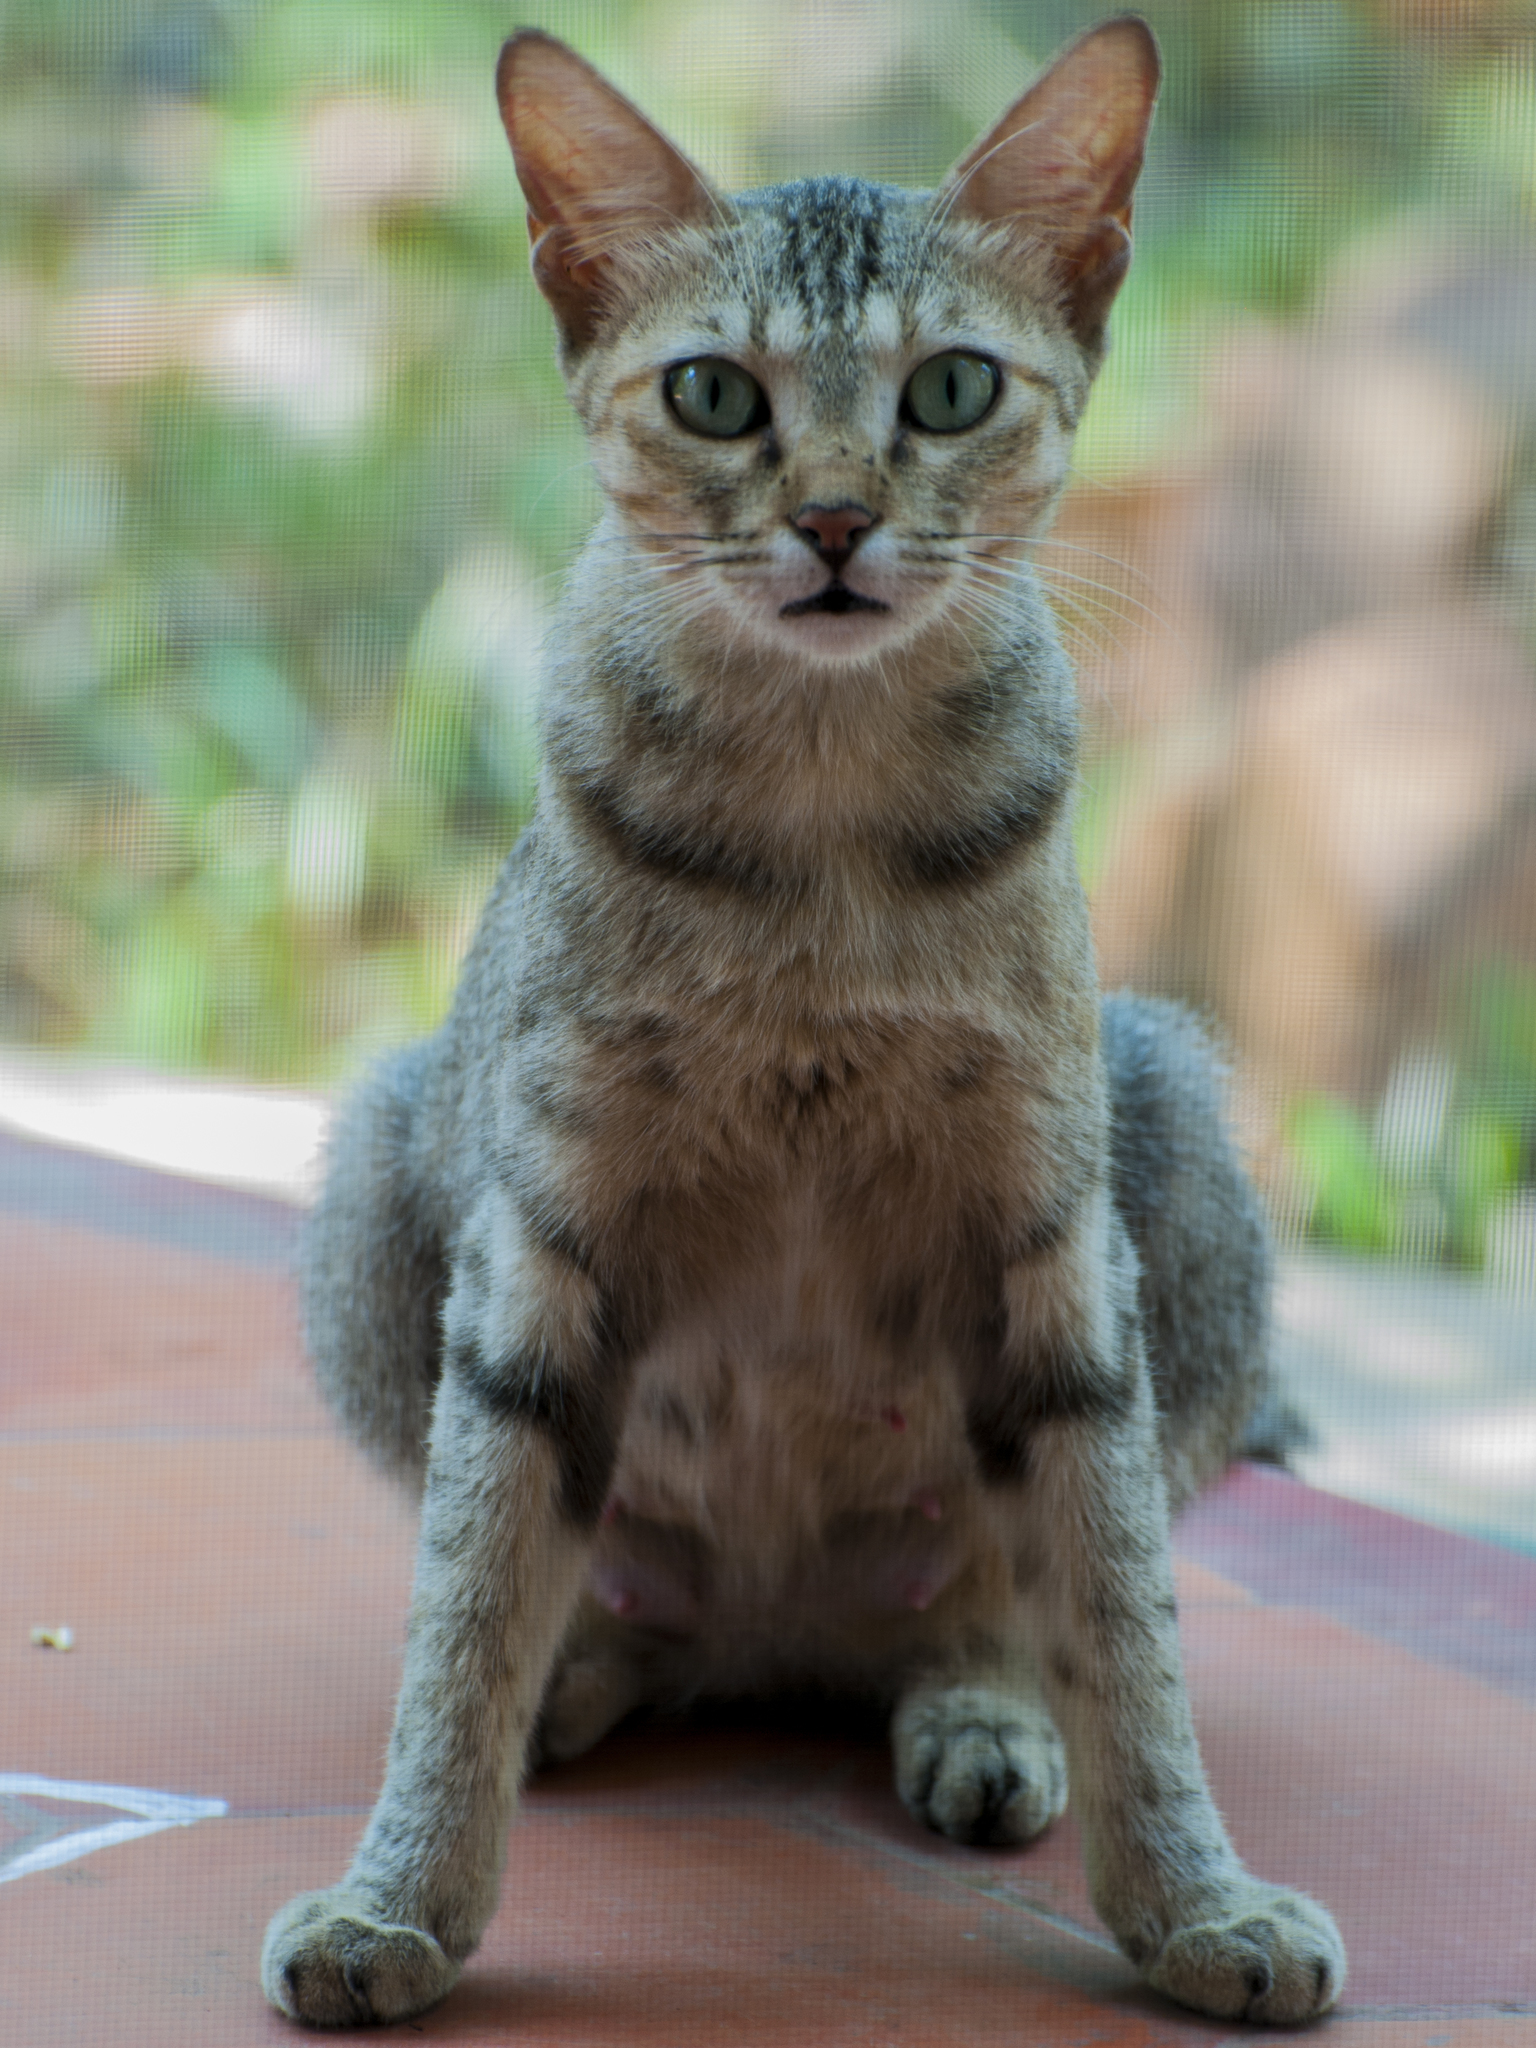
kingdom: Animalia
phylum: Chordata
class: Mammalia
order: Carnivora
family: Felidae
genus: Felis
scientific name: Felis catus
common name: Domestic cat
